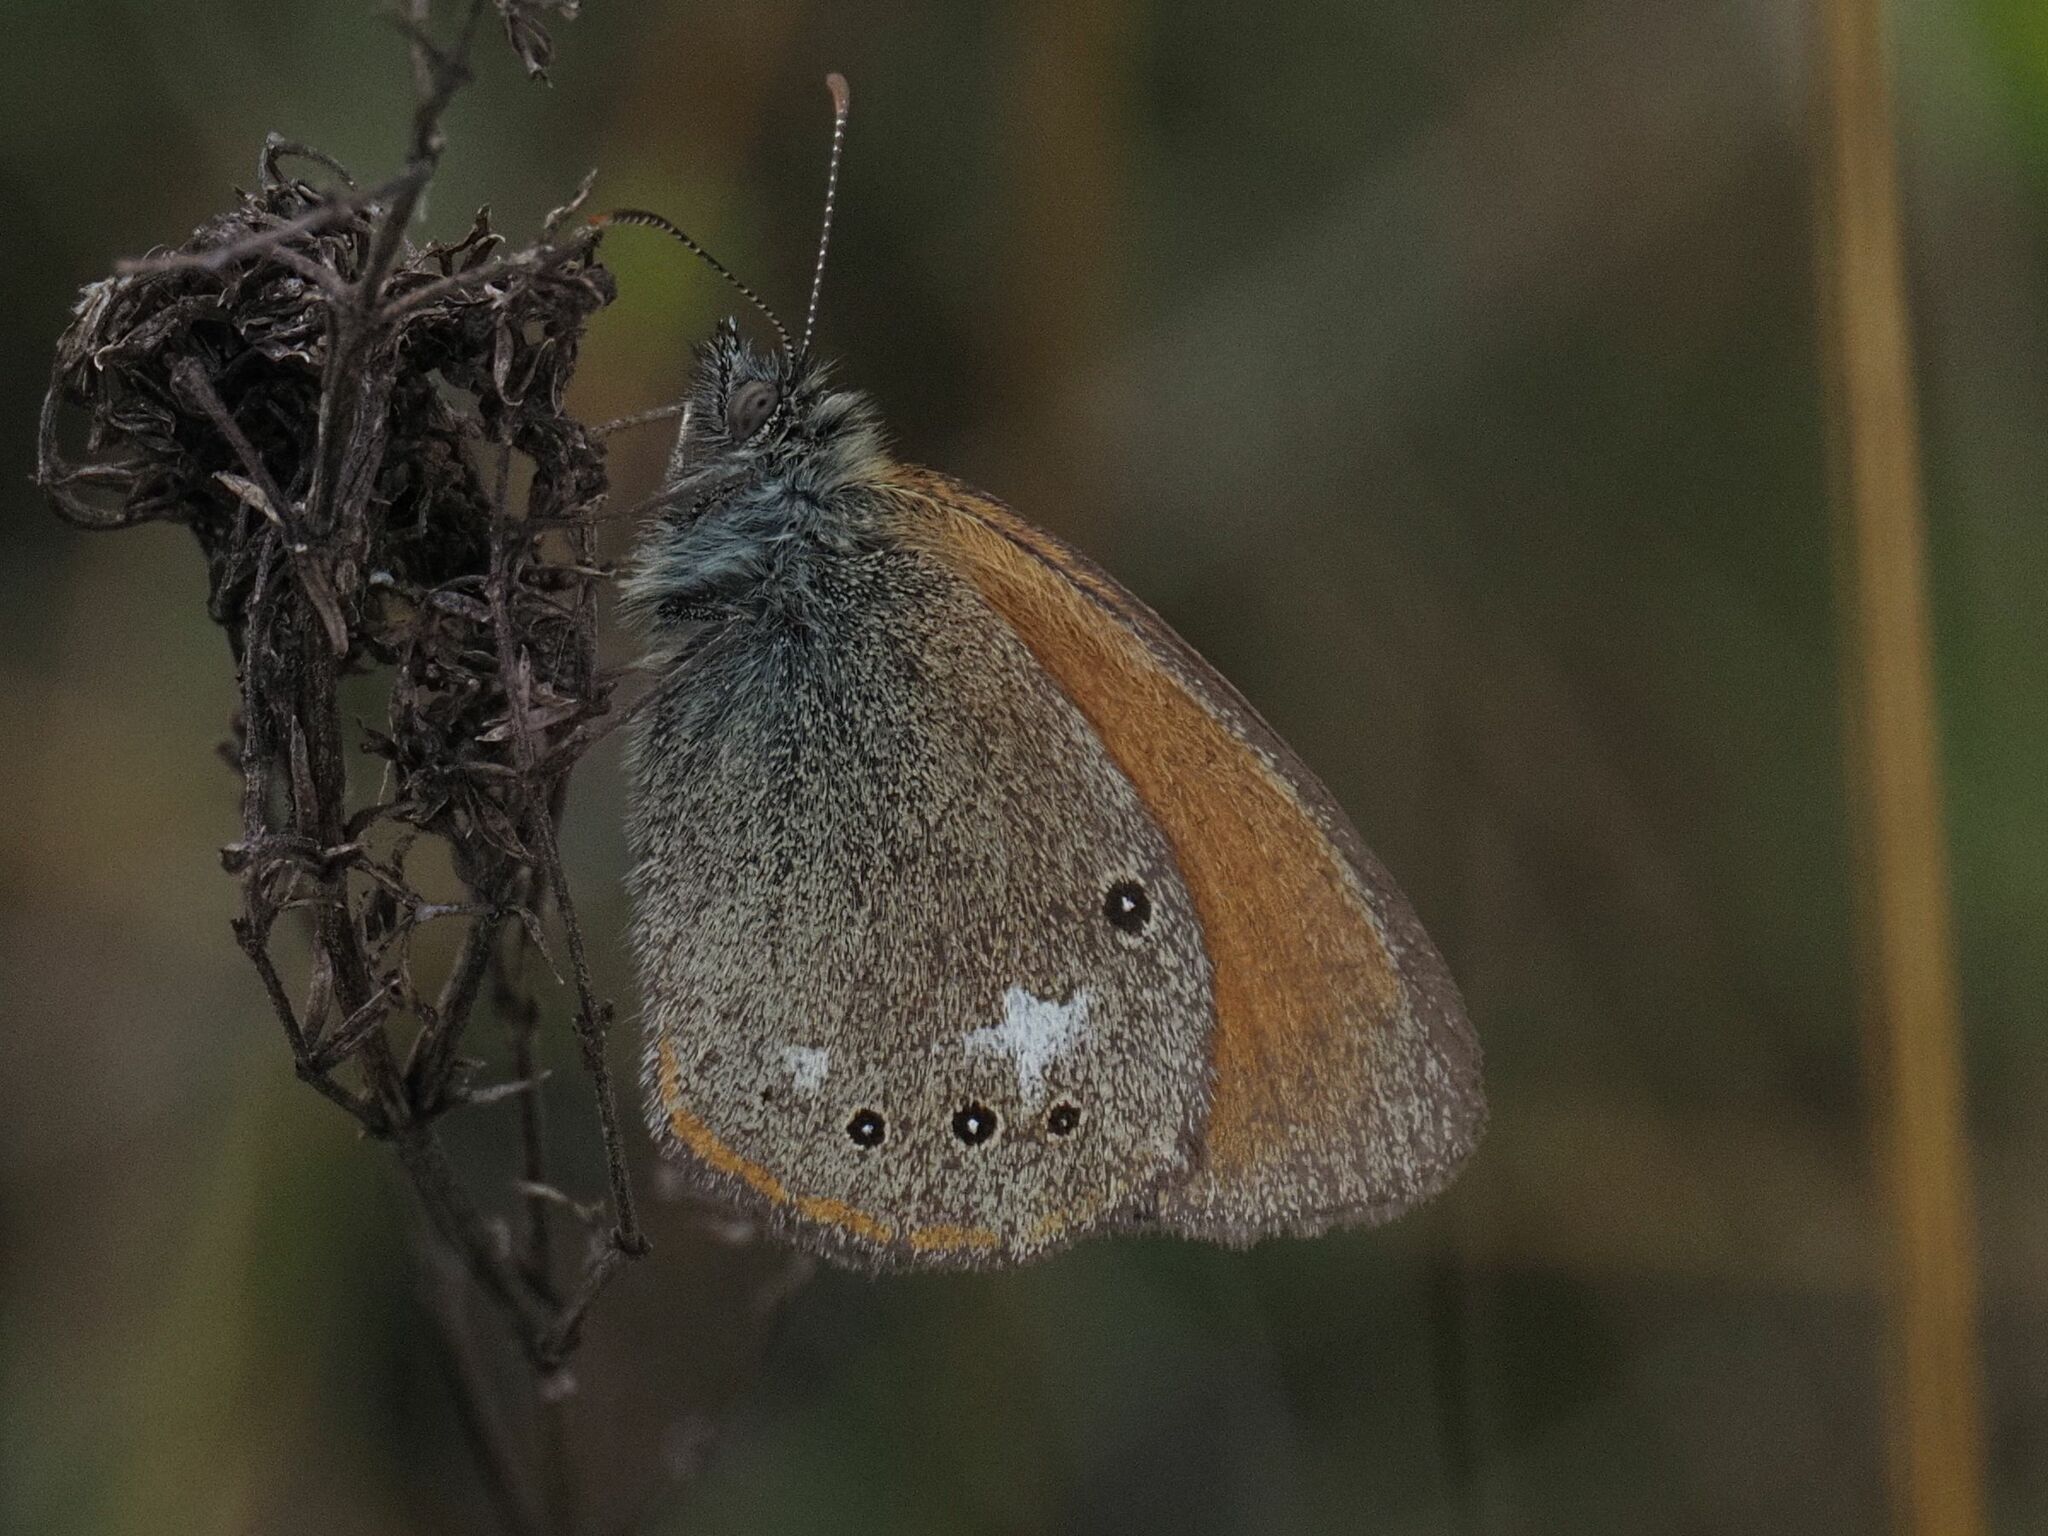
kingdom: Animalia
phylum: Arthropoda
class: Insecta
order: Lepidoptera
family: Nymphalidae
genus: Coenonympha
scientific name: Coenonympha iphis
